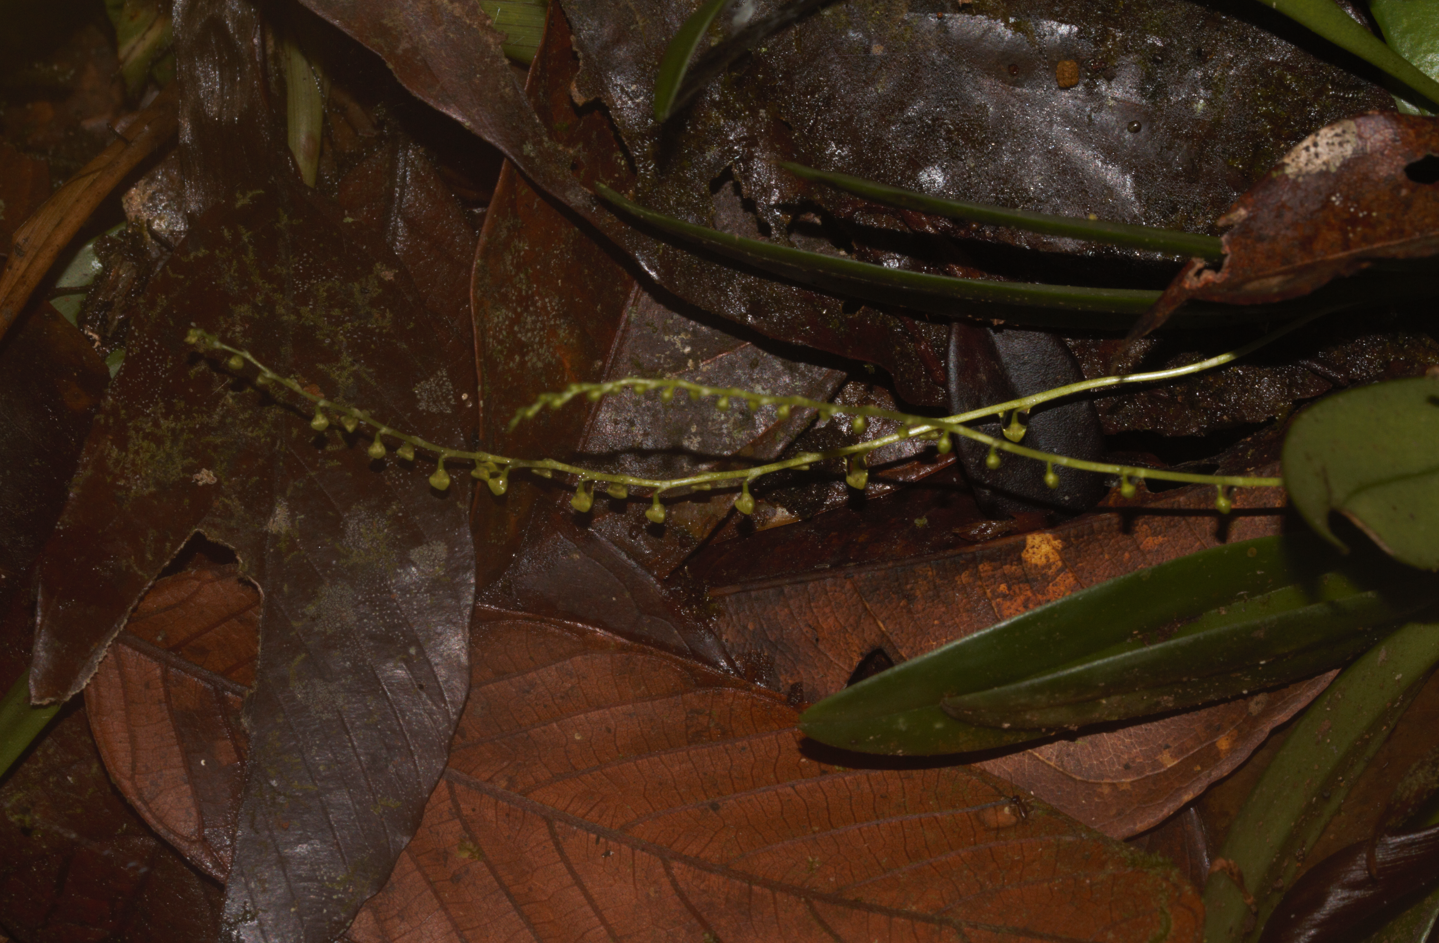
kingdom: Plantae
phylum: Tracheophyta
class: Liliopsida
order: Asparagales
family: Orchidaceae
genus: Stelis
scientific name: Stelis
